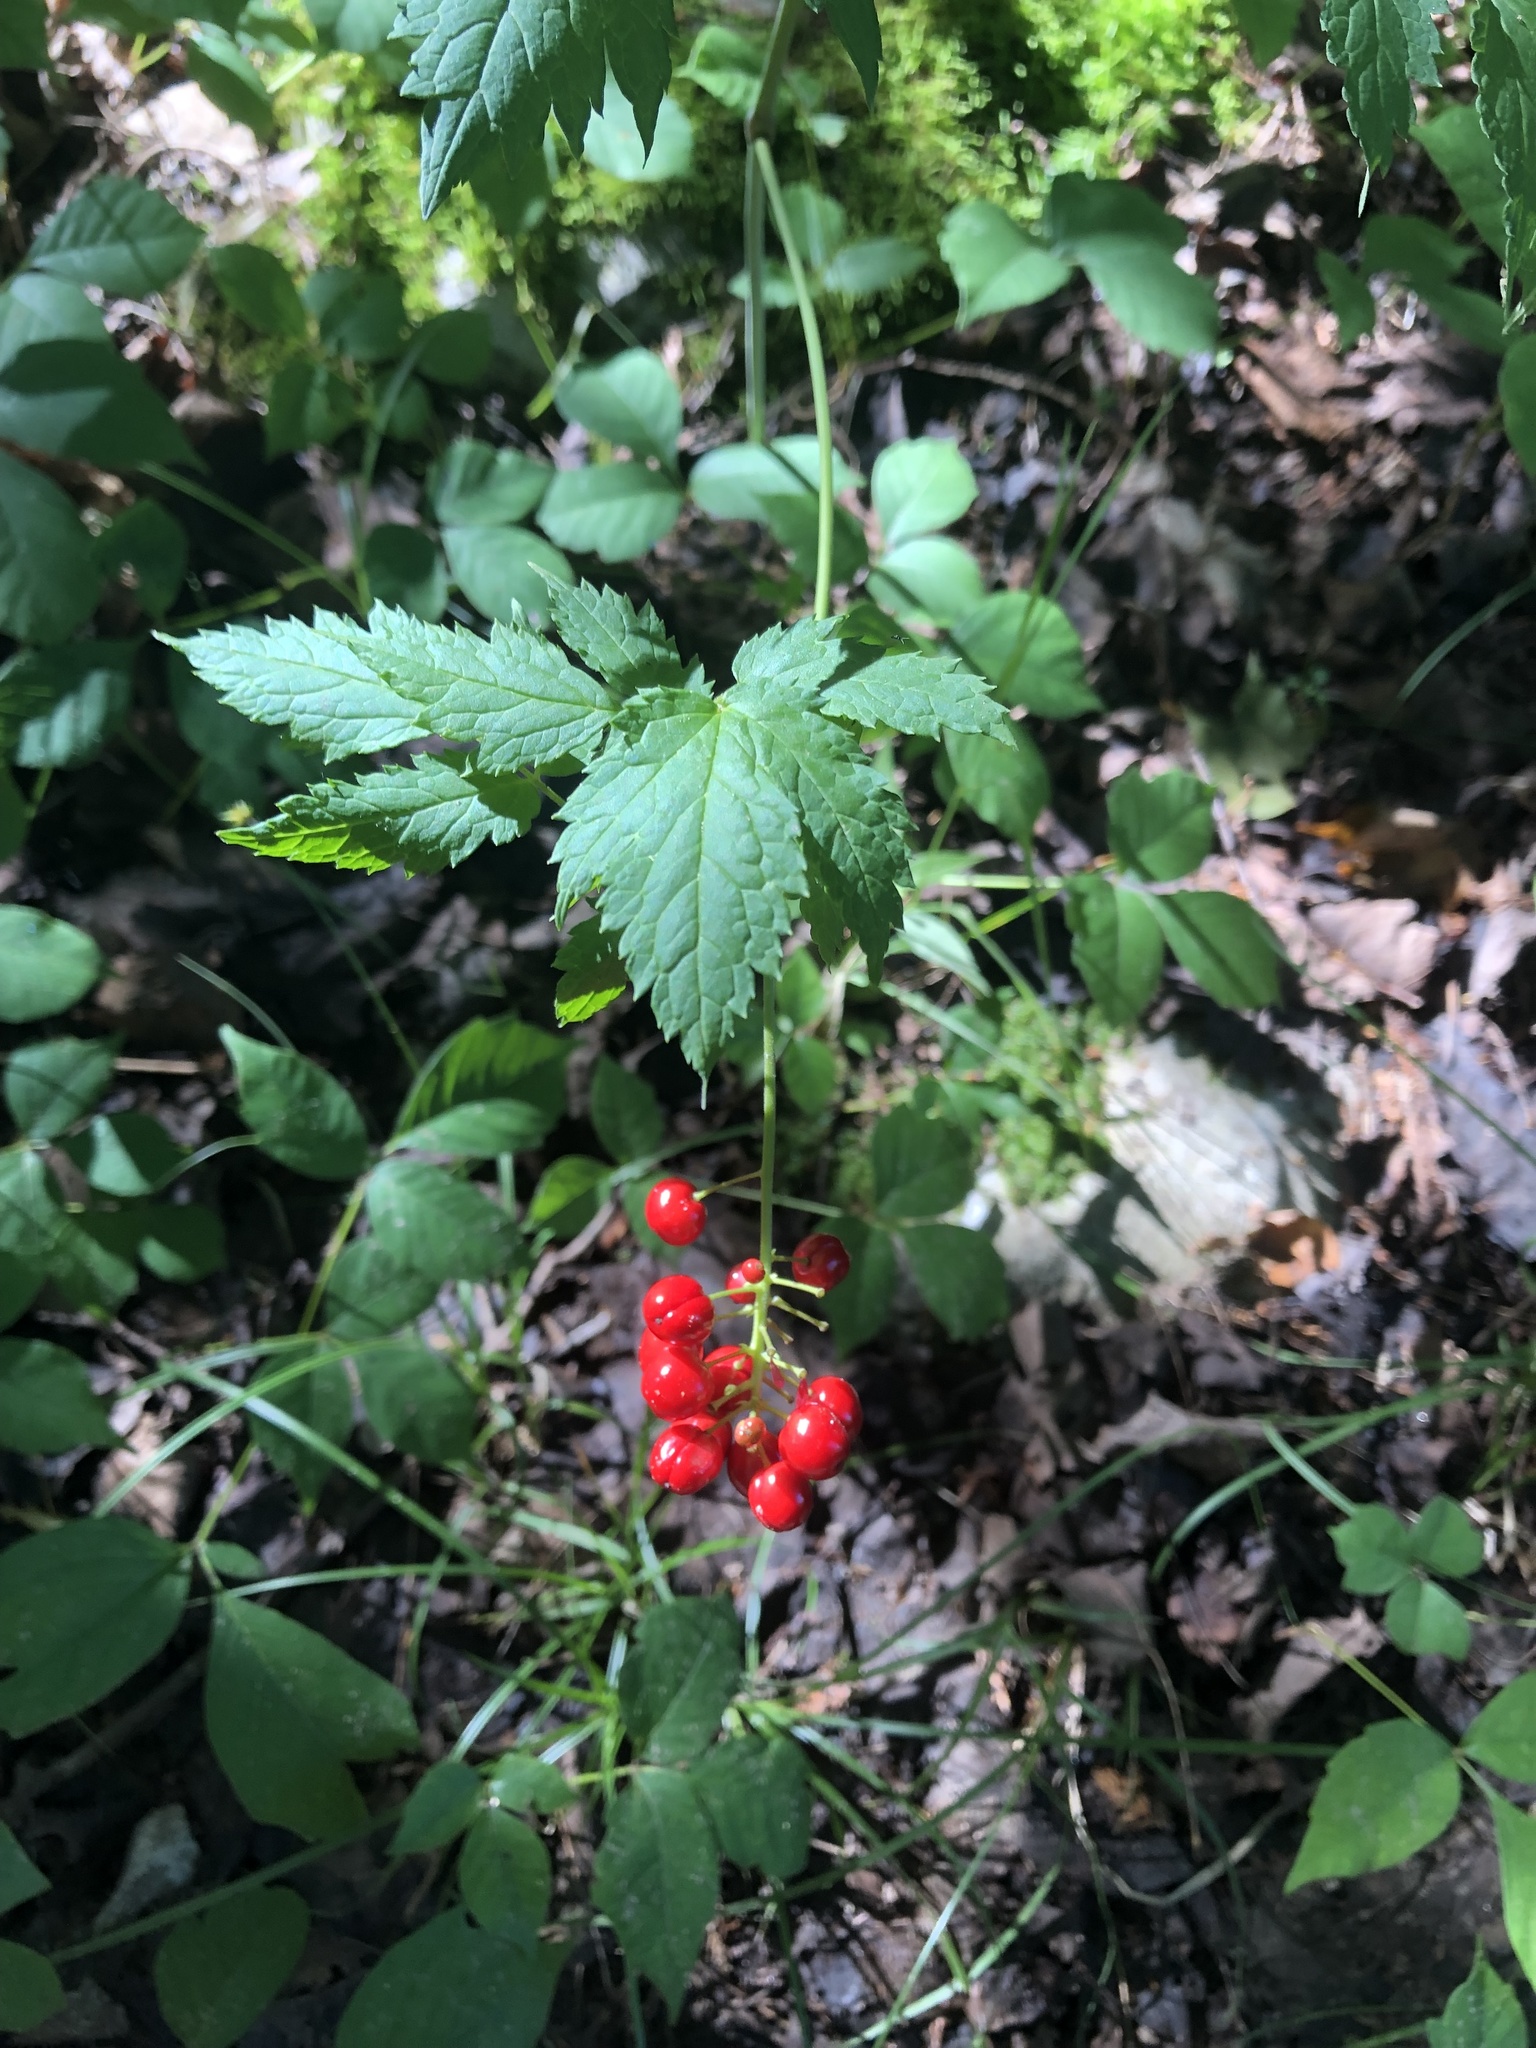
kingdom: Plantae
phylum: Tracheophyta
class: Magnoliopsida
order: Ranunculales
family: Ranunculaceae
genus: Actaea
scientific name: Actaea rubra
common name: Red baneberry
